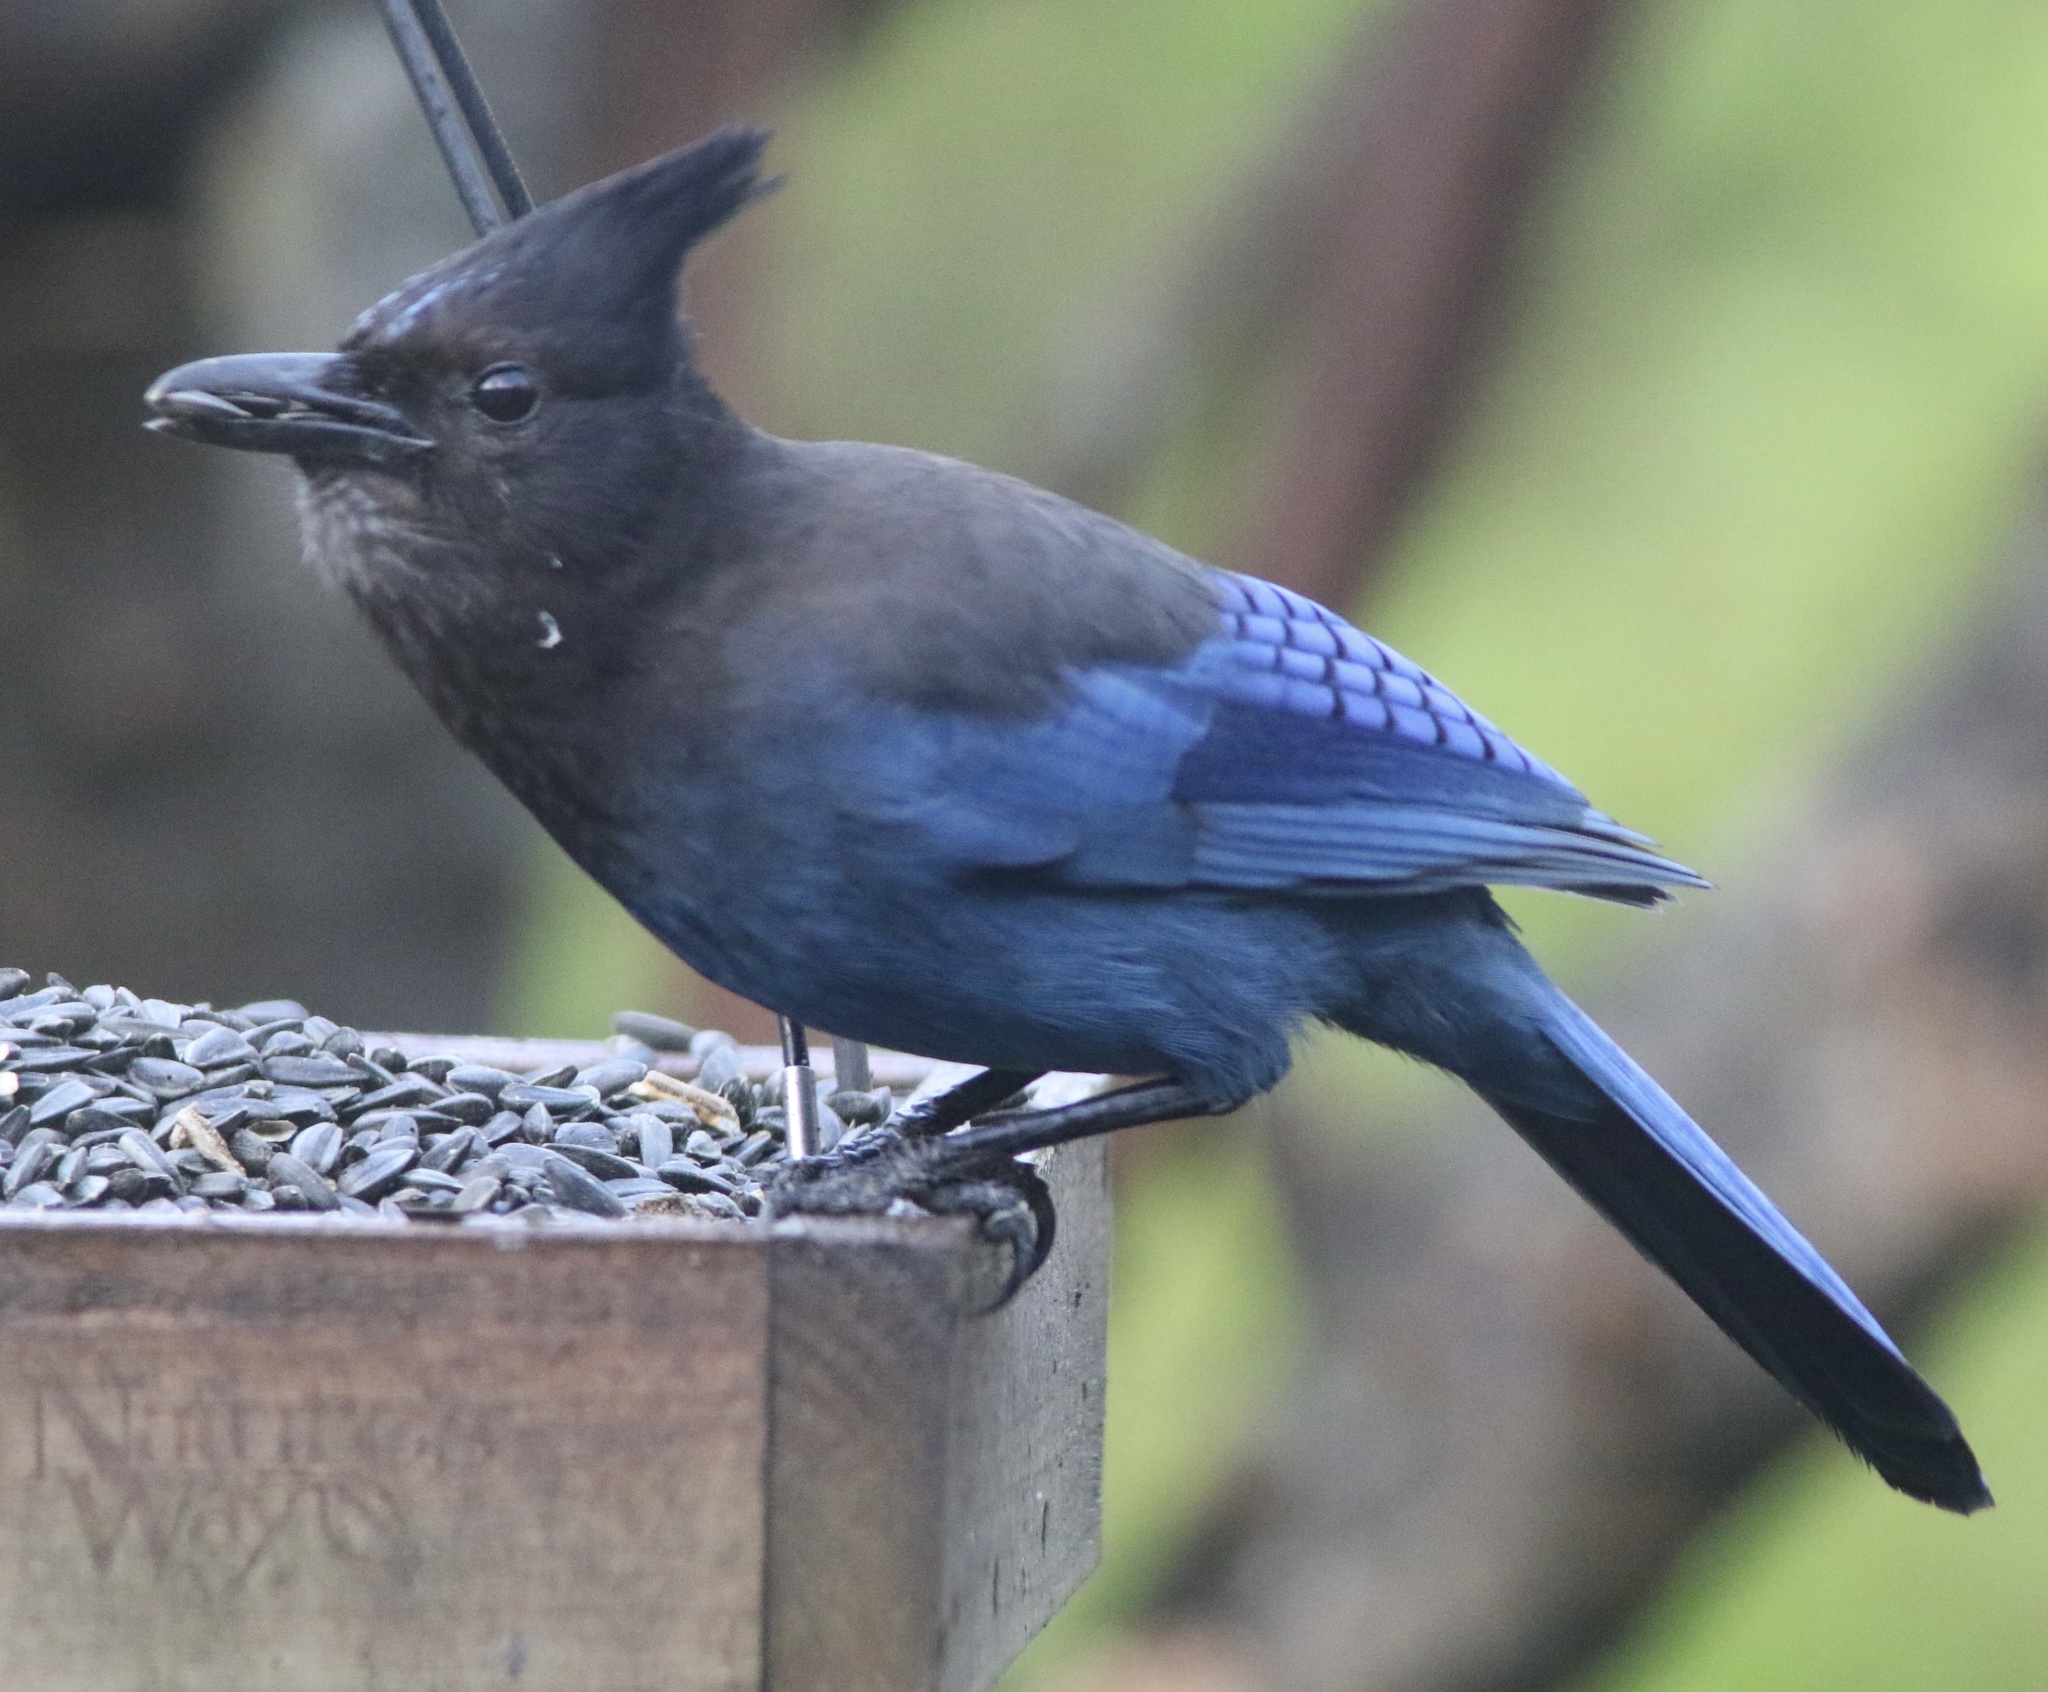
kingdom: Animalia
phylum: Chordata
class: Aves
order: Passeriformes
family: Corvidae
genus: Cyanocitta
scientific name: Cyanocitta stelleri
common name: Steller's jay
